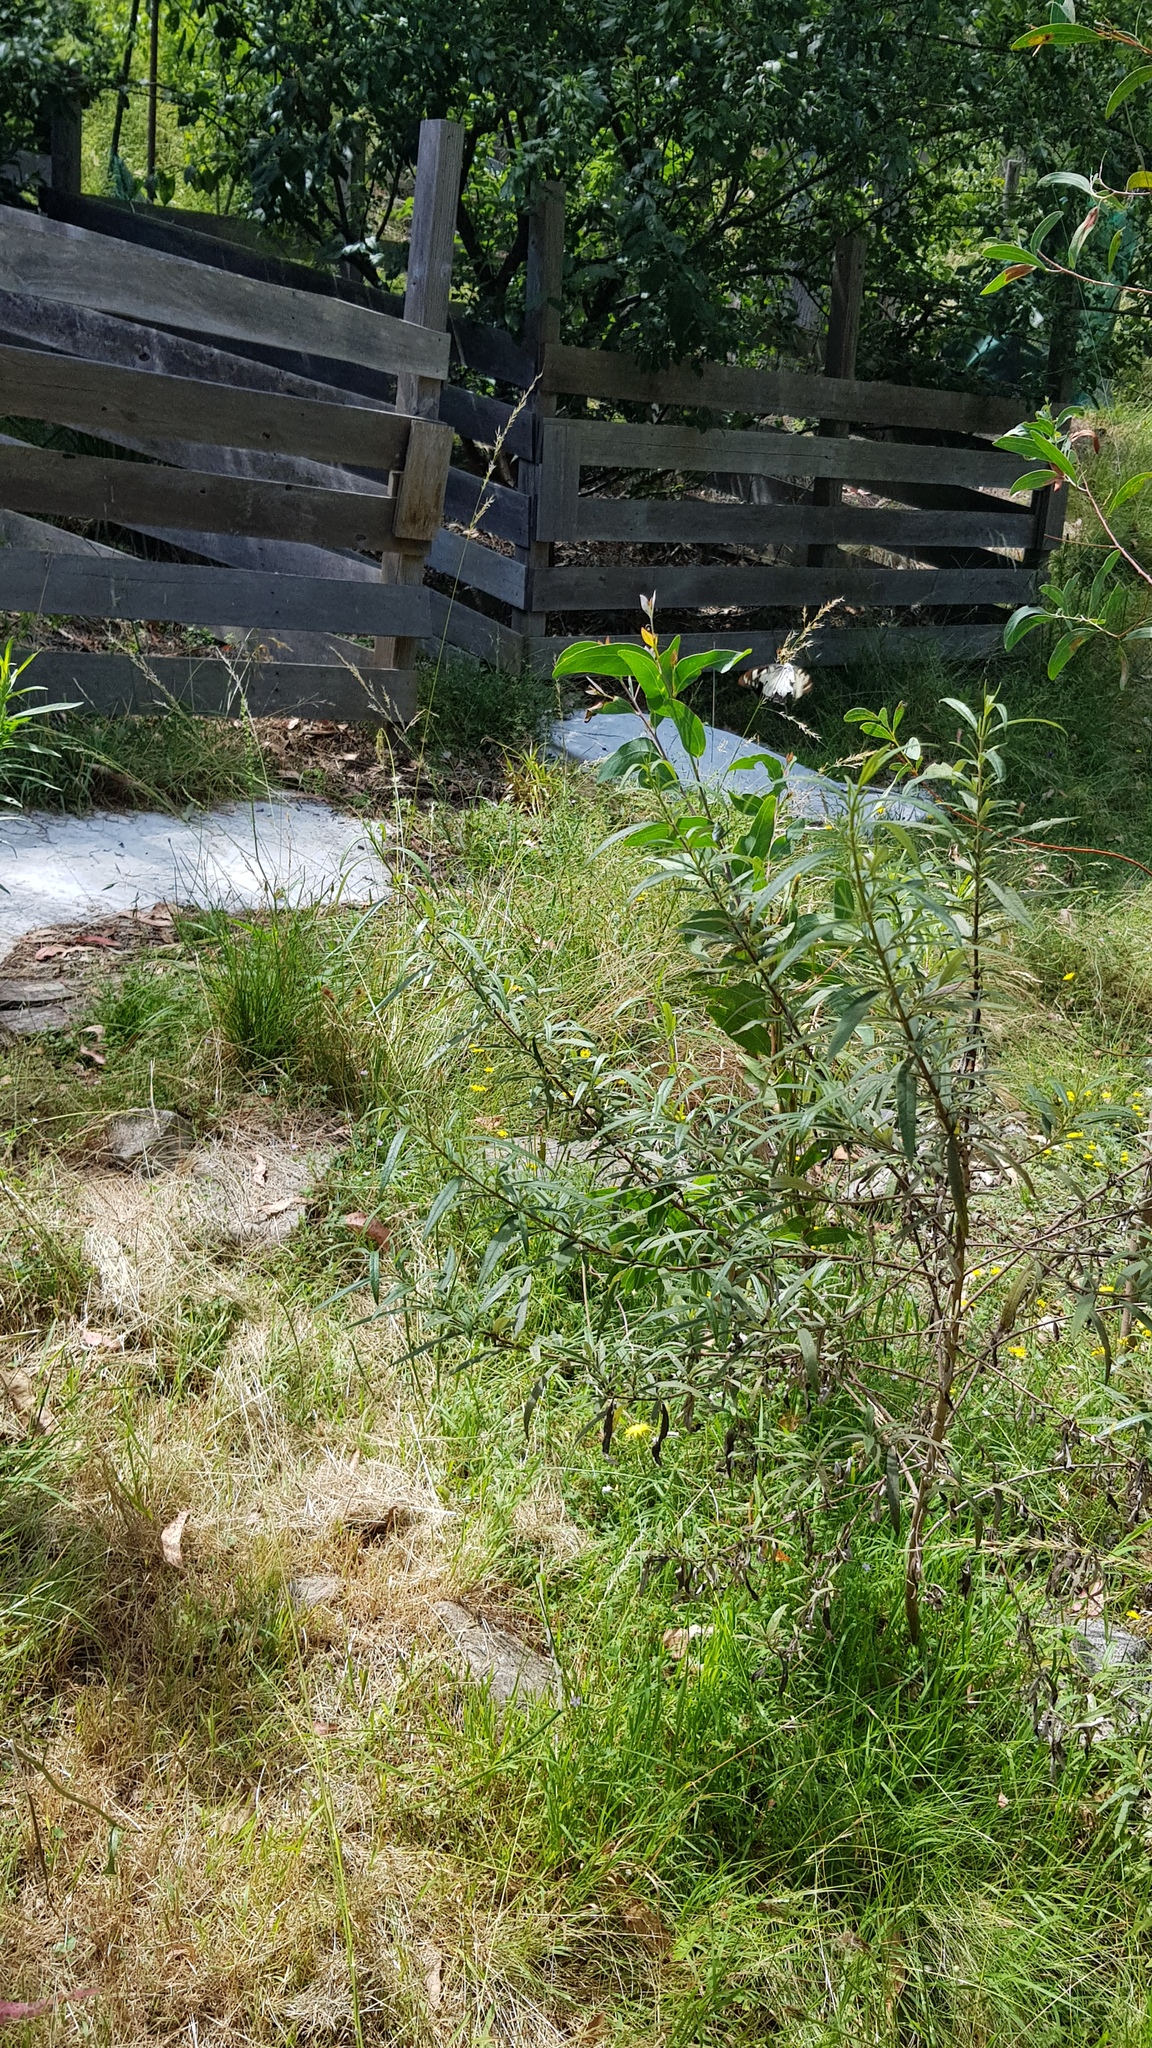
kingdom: Animalia
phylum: Arthropoda
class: Insecta
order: Lepidoptera
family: Nymphalidae
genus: Charaxes
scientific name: Charaxes
